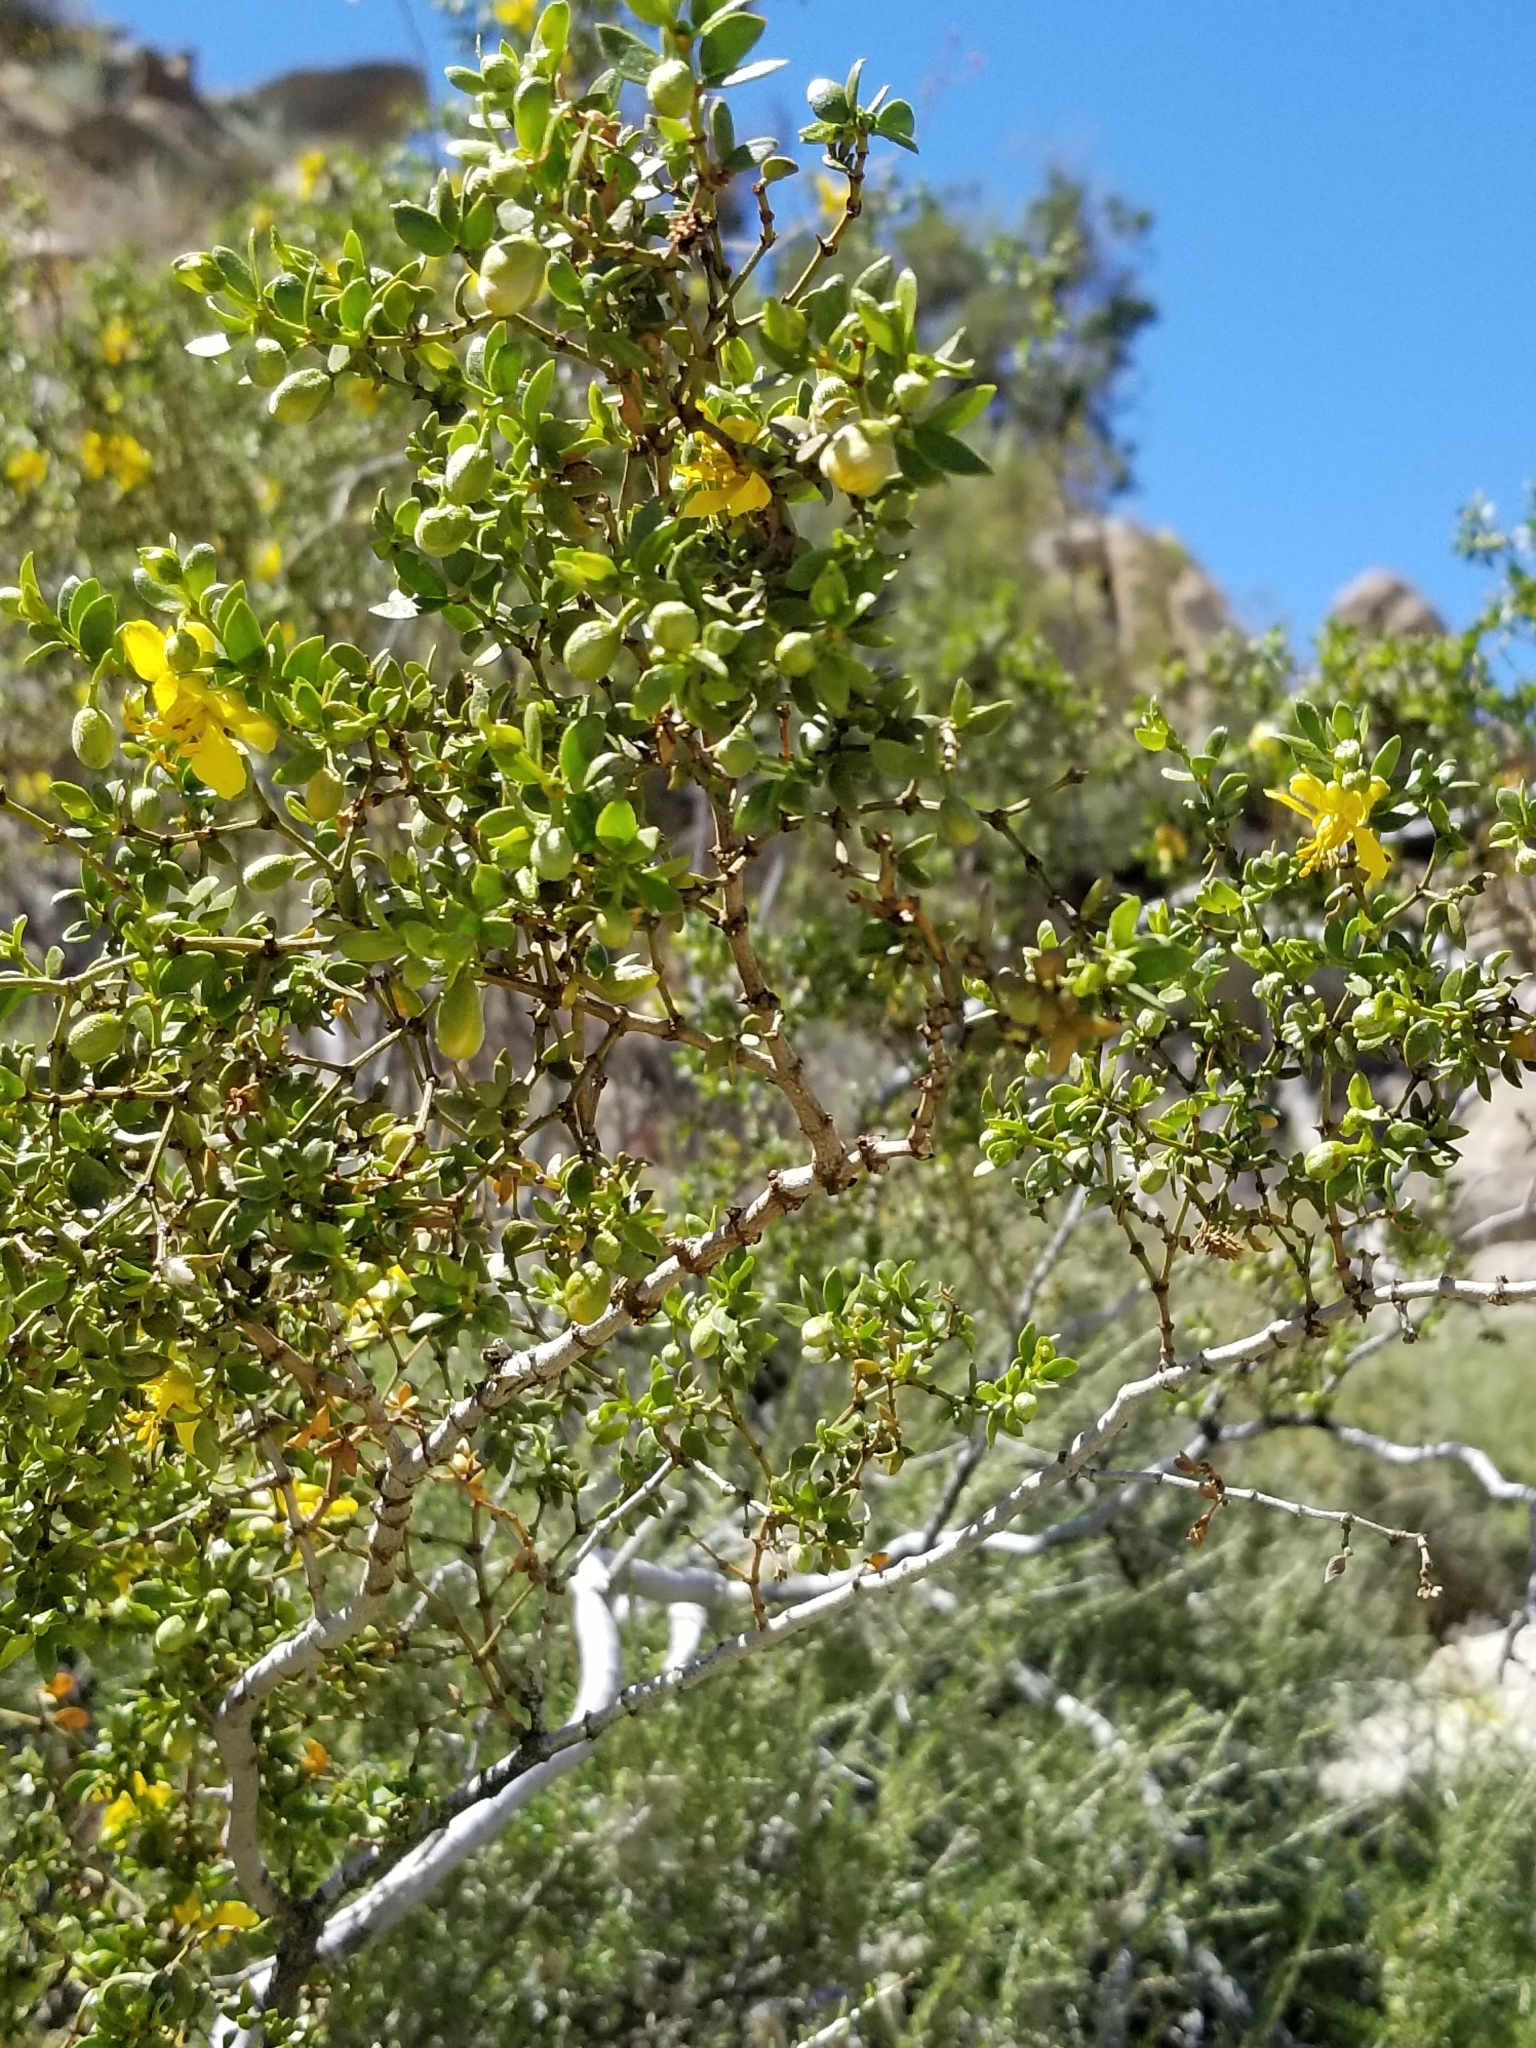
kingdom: Plantae
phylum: Tracheophyta
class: Magnoliopsida
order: Zygophyllales
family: Zygophyllaceae
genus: Larrea
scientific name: Larrea tridentata
